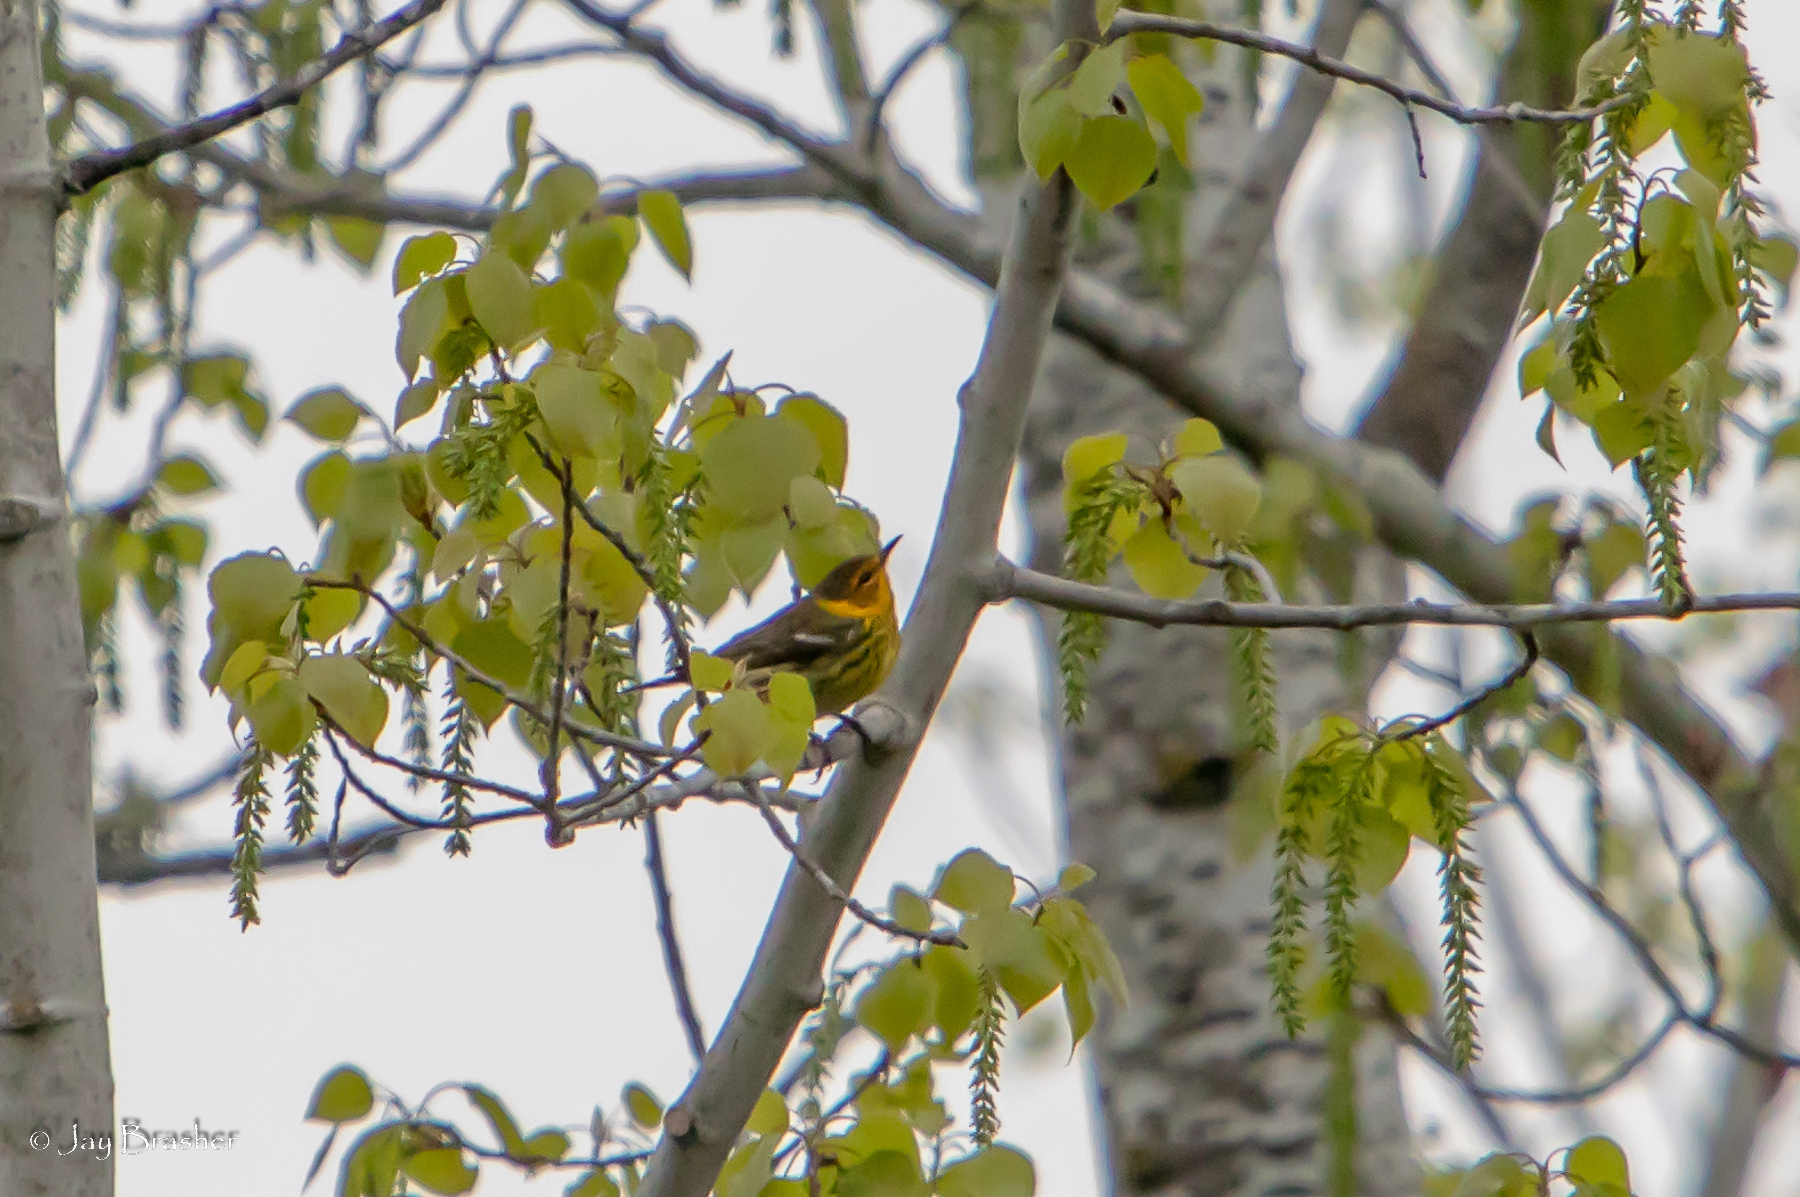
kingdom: Animalia
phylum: Chordata
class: Aves
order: Passeriformes
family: Parulidae
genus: Setophaga
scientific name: Setophaga tigrina
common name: Cape may warbler
